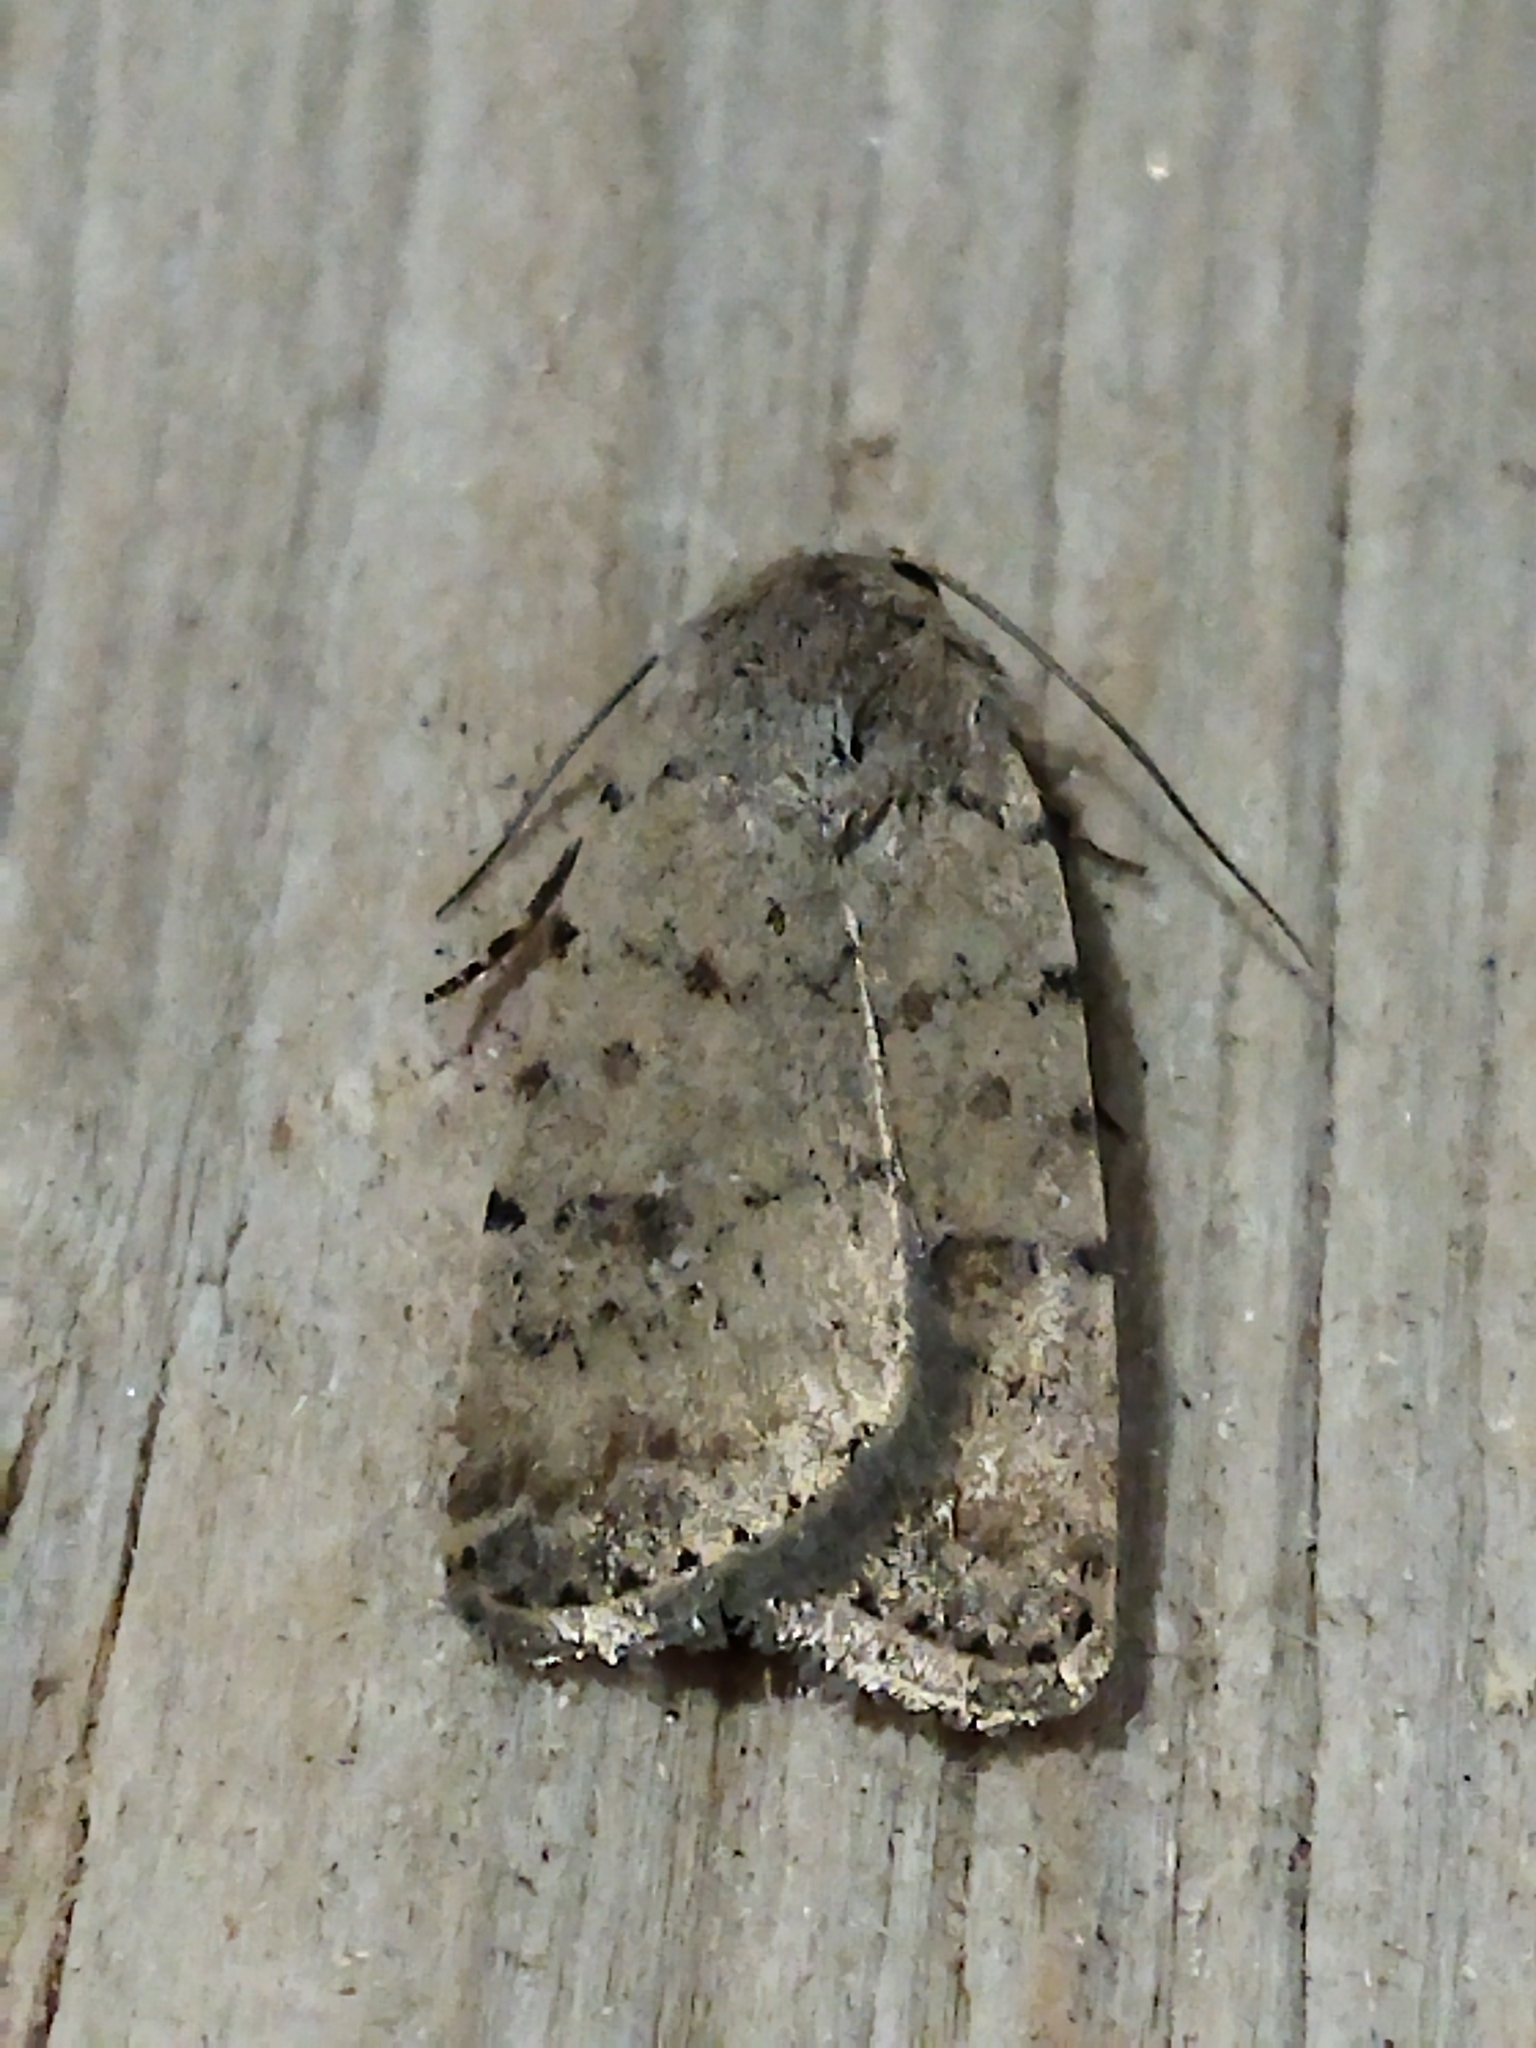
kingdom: Animalia
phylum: Arthropoda
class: Insecta
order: Lepidoptera
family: Noctuidae
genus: Caradrina
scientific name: Caradrina clavipalpis
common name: Pale mottled willow
